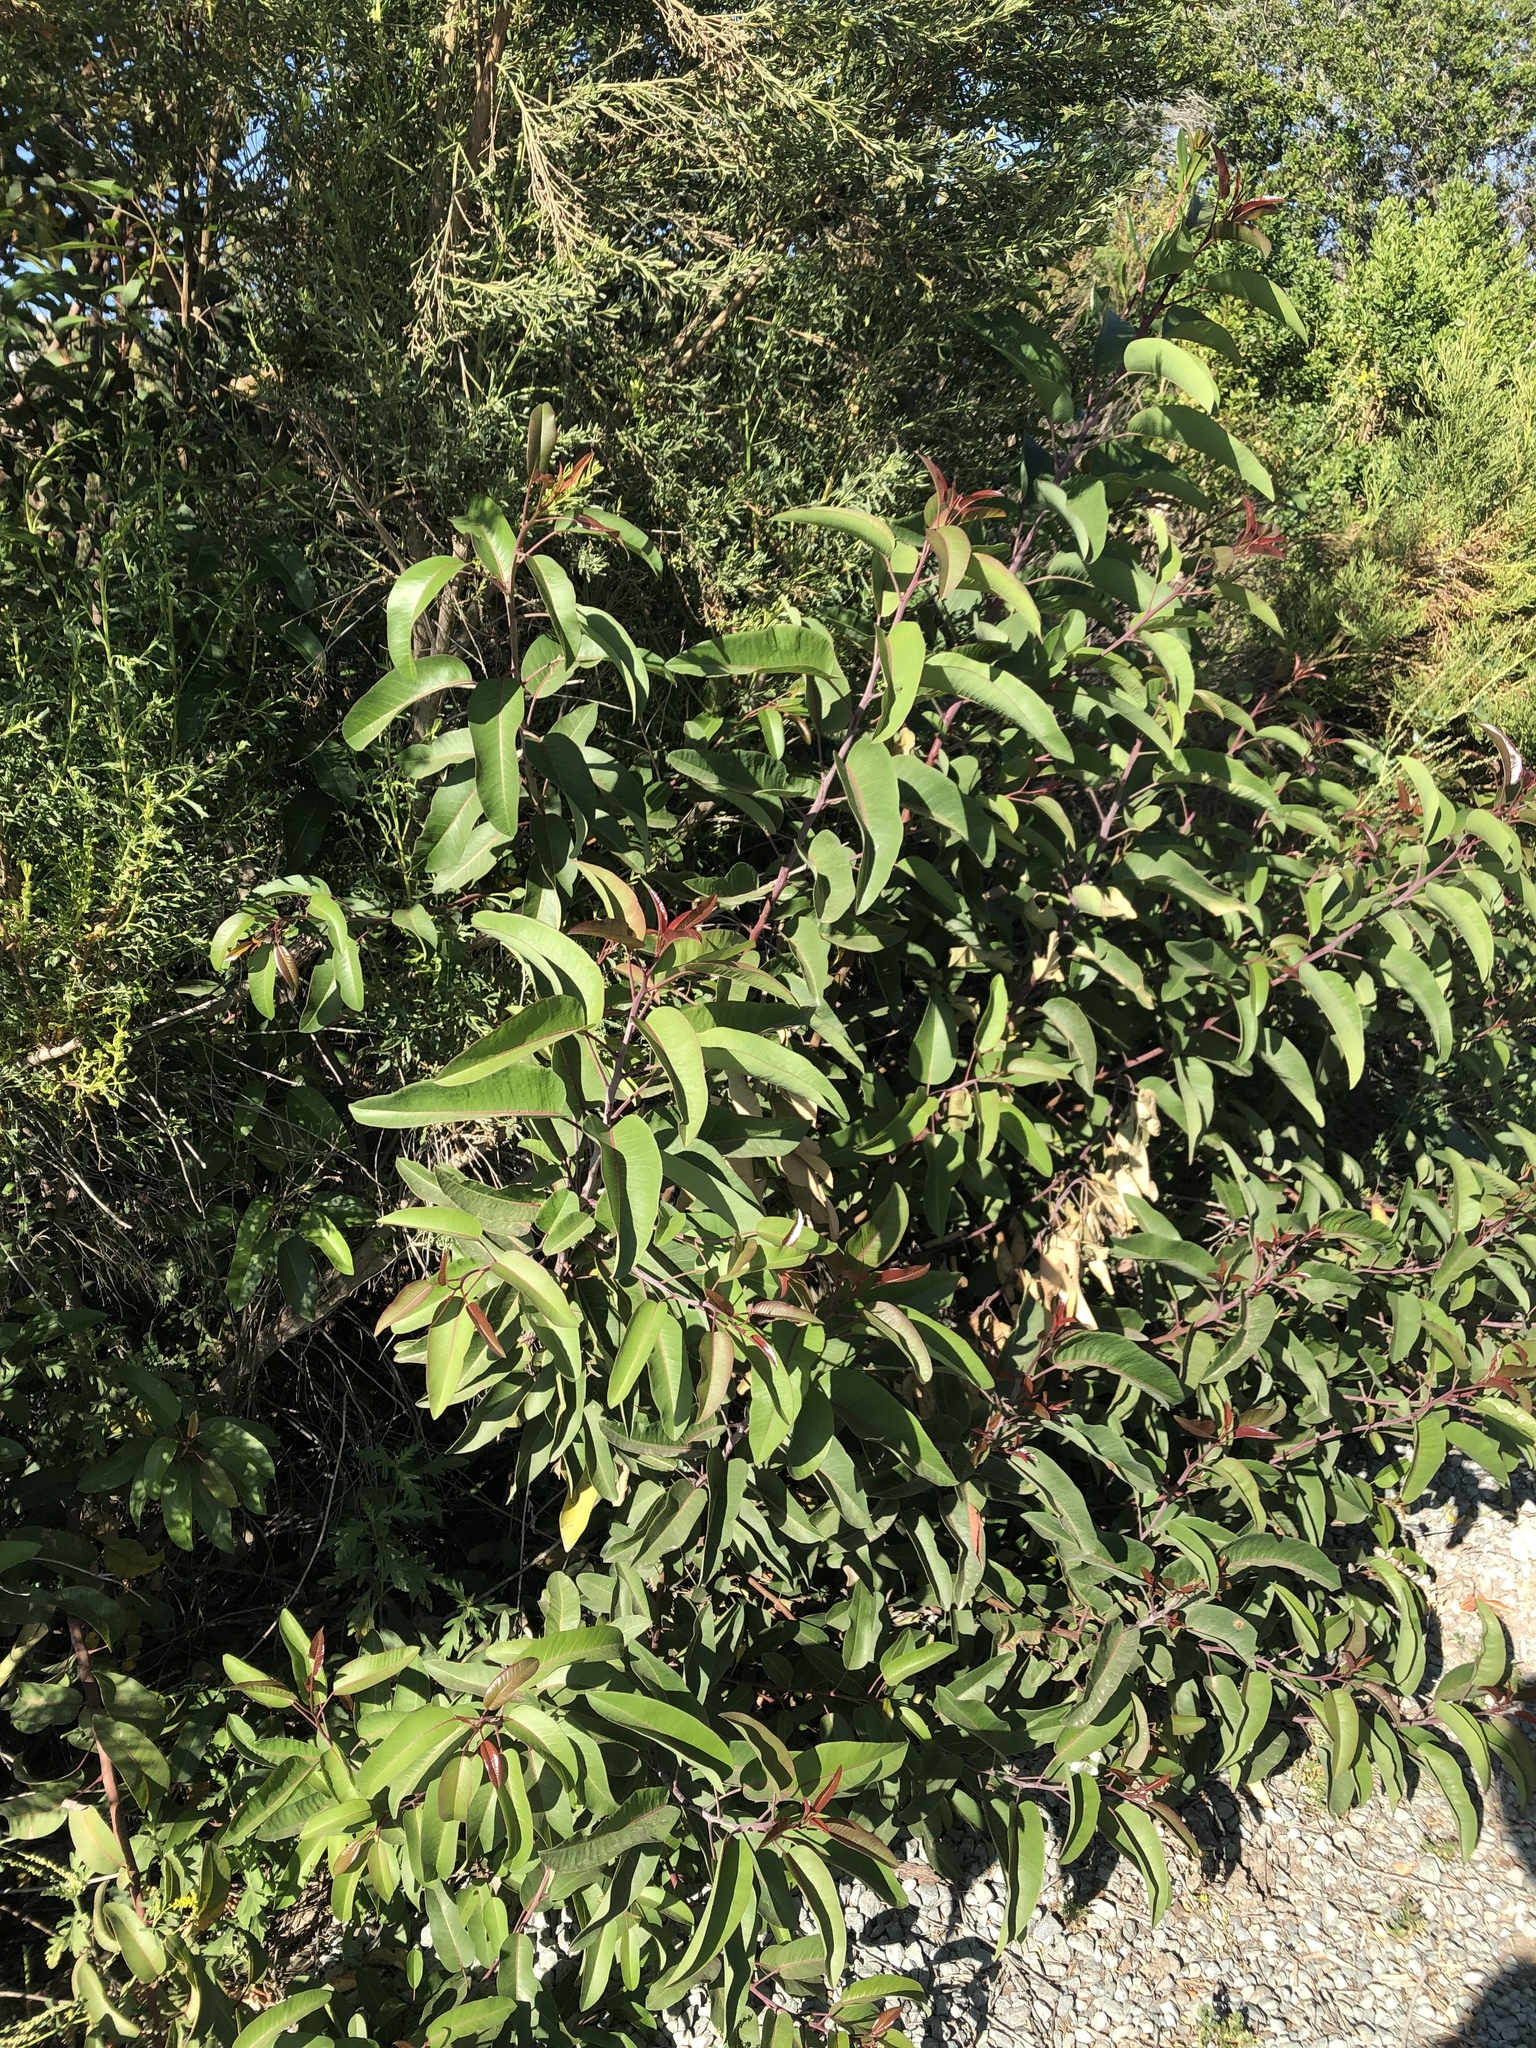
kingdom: Plantae
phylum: Tracheophyta
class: Magnoliopsida
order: Sapindales
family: Anacardiaceae
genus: Malosma
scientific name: Malosma laurina
